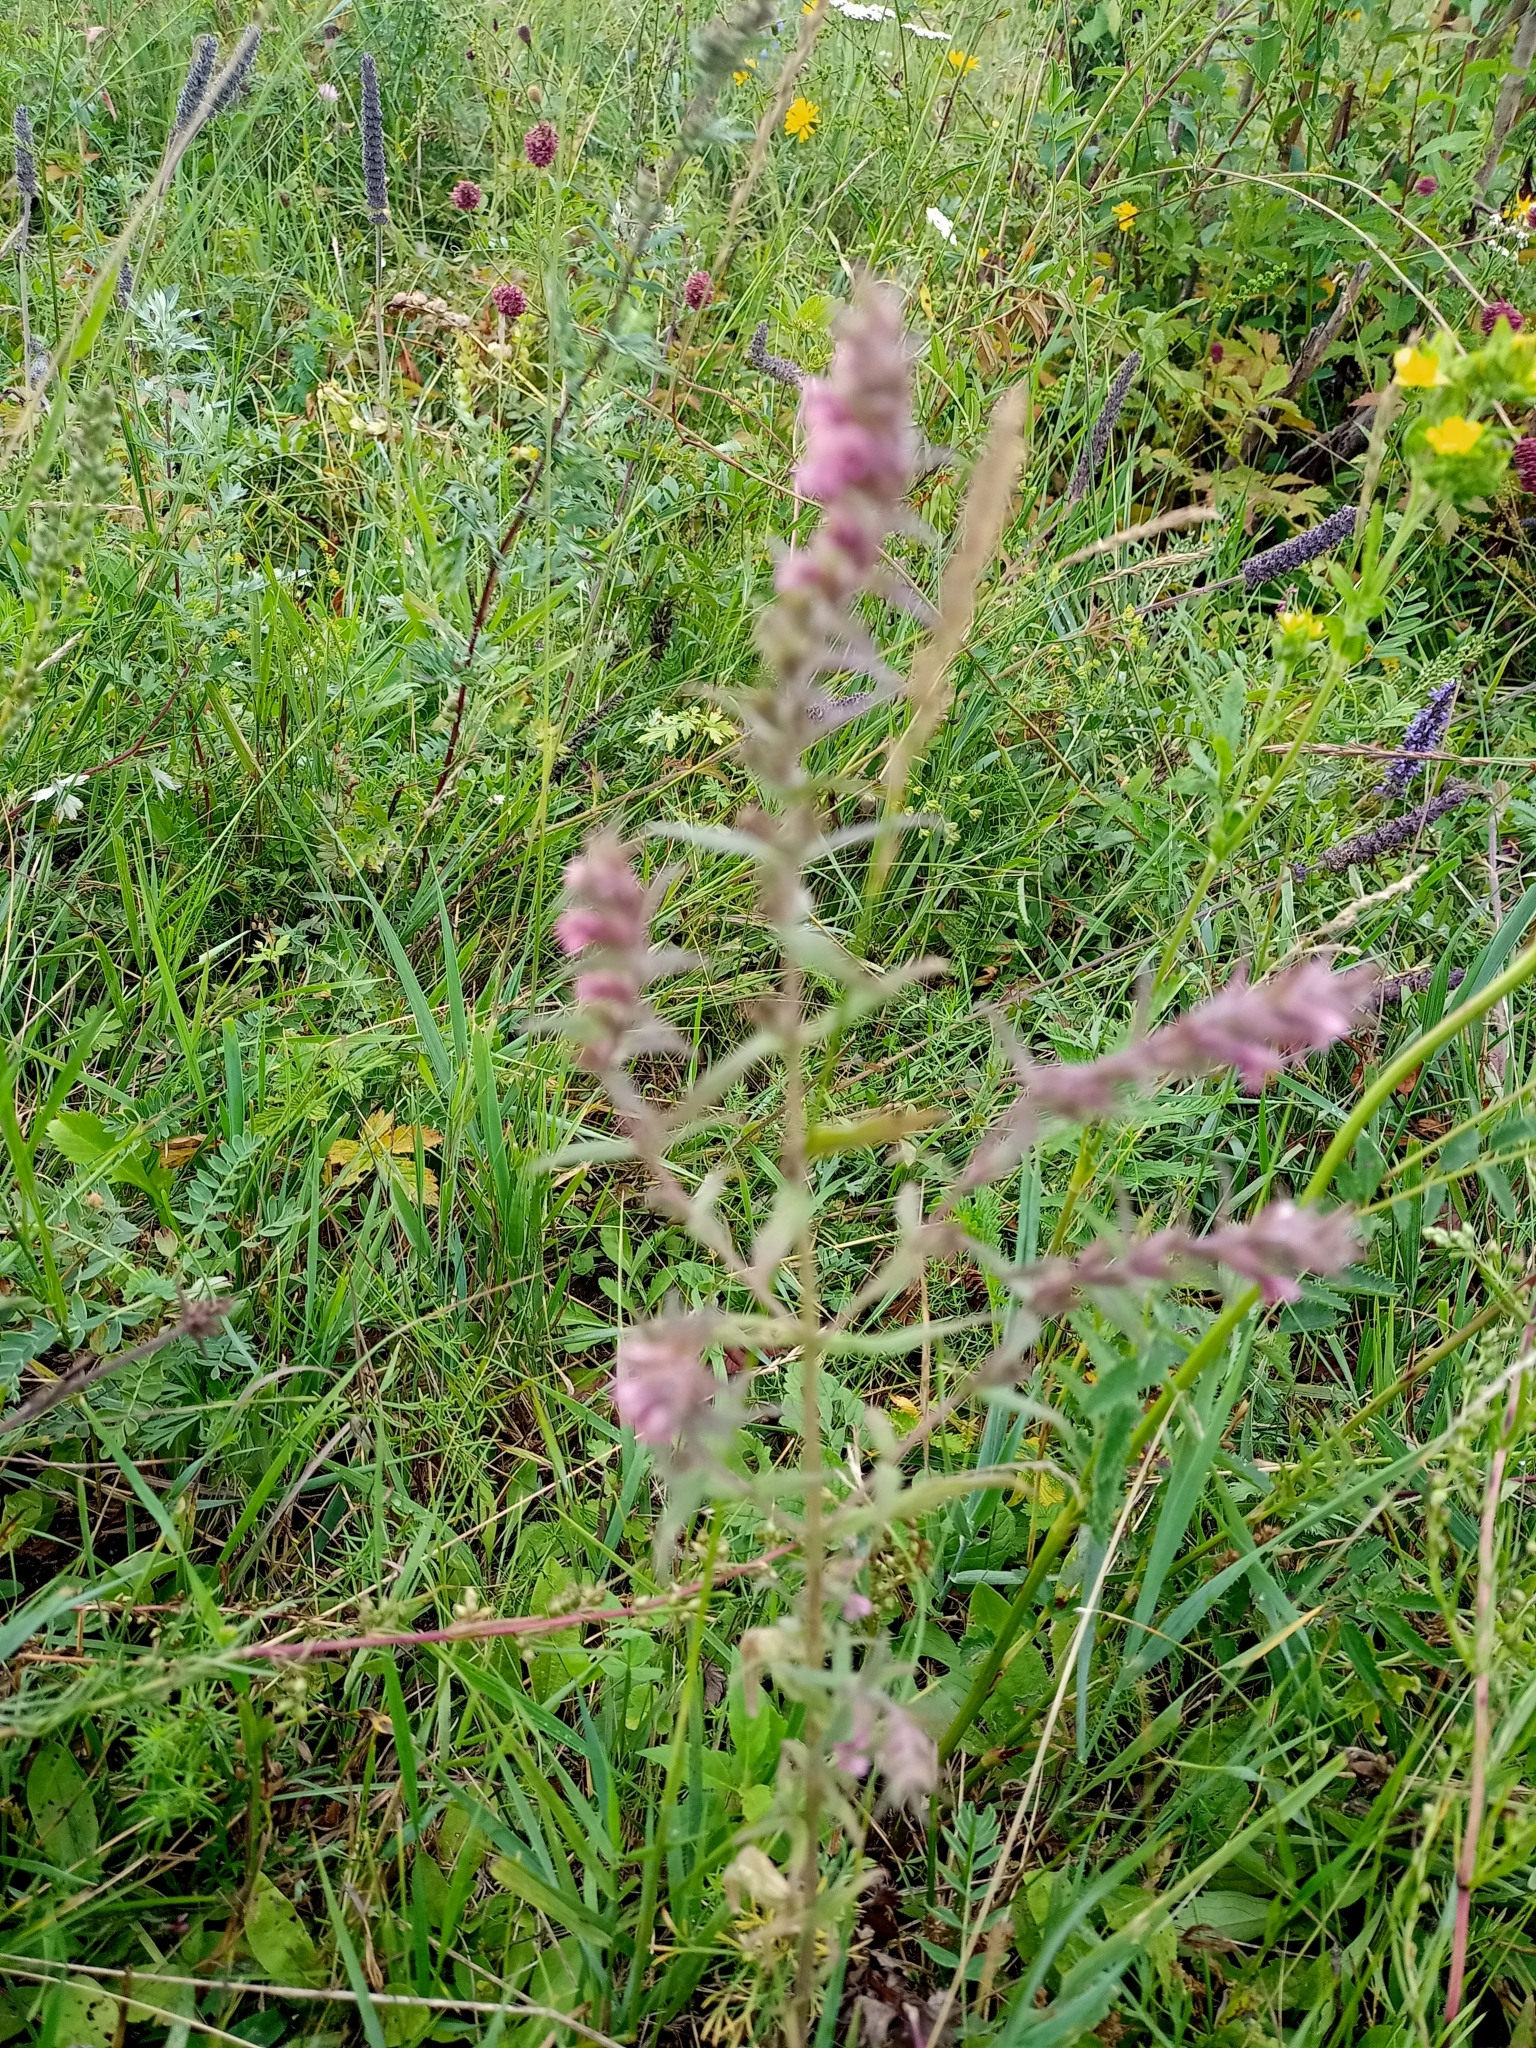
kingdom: Plantae
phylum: Tracheophyta
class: Magnoliopsida
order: Lamiales
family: Orobanchaceae
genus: Odontites
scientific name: Odontites vulgaris
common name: Broomrape
